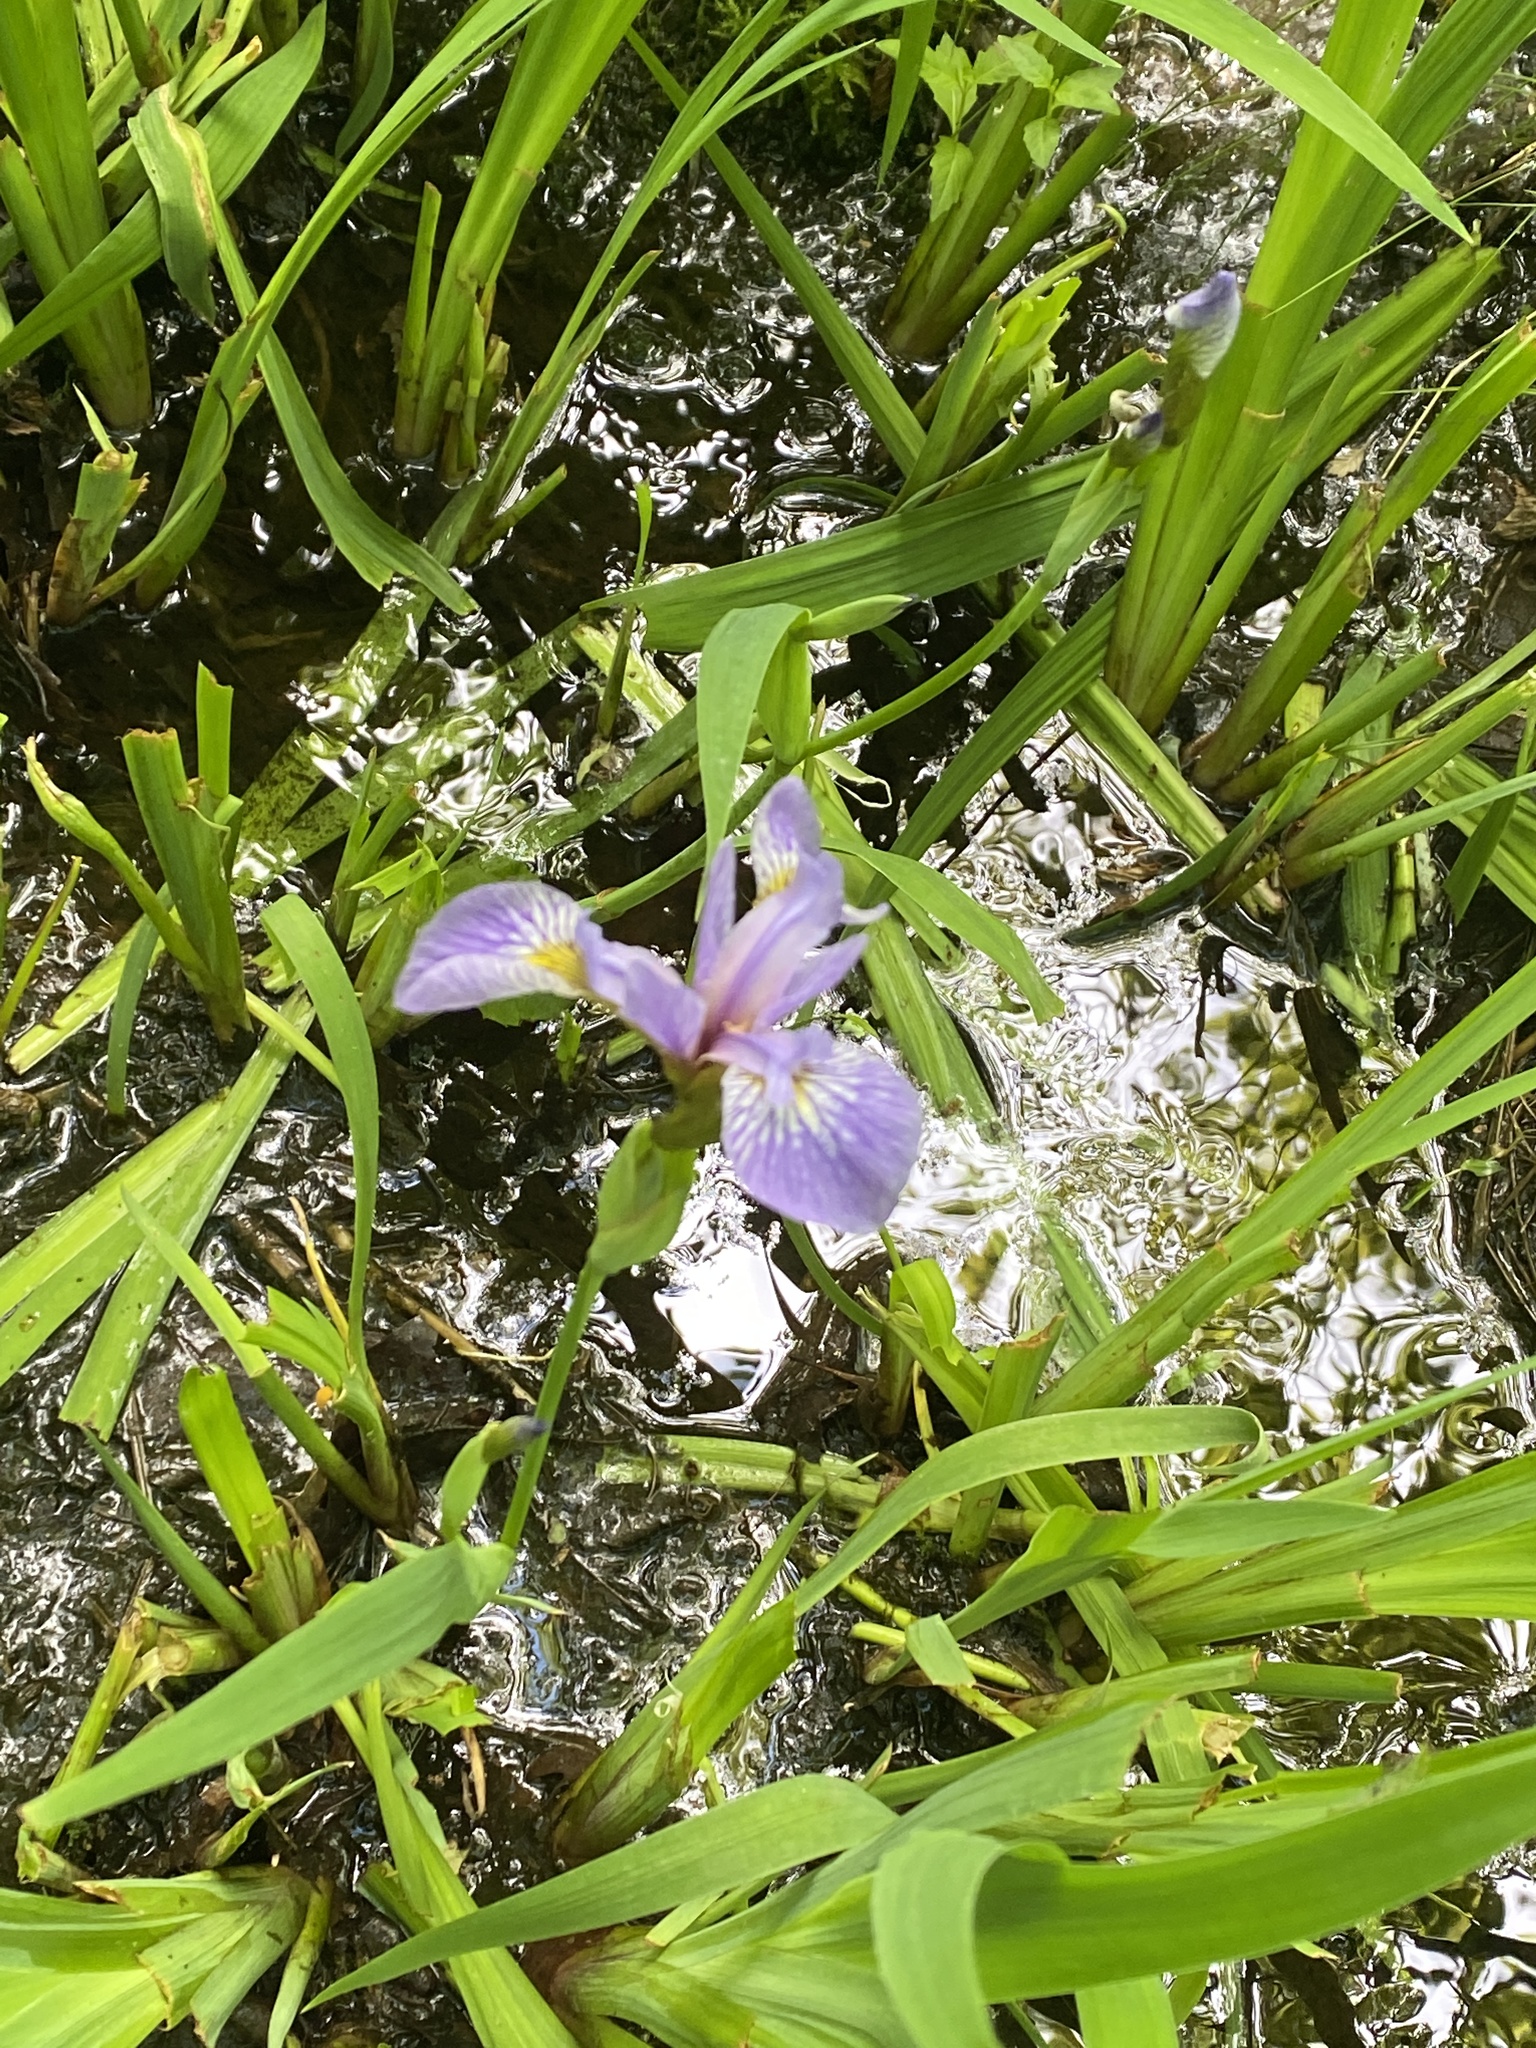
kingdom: Plantae
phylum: Tracheophyta
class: Liliopsida
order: Asparagales
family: Iridaceae
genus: Iris
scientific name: Iris versicolor
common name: Purple iris
